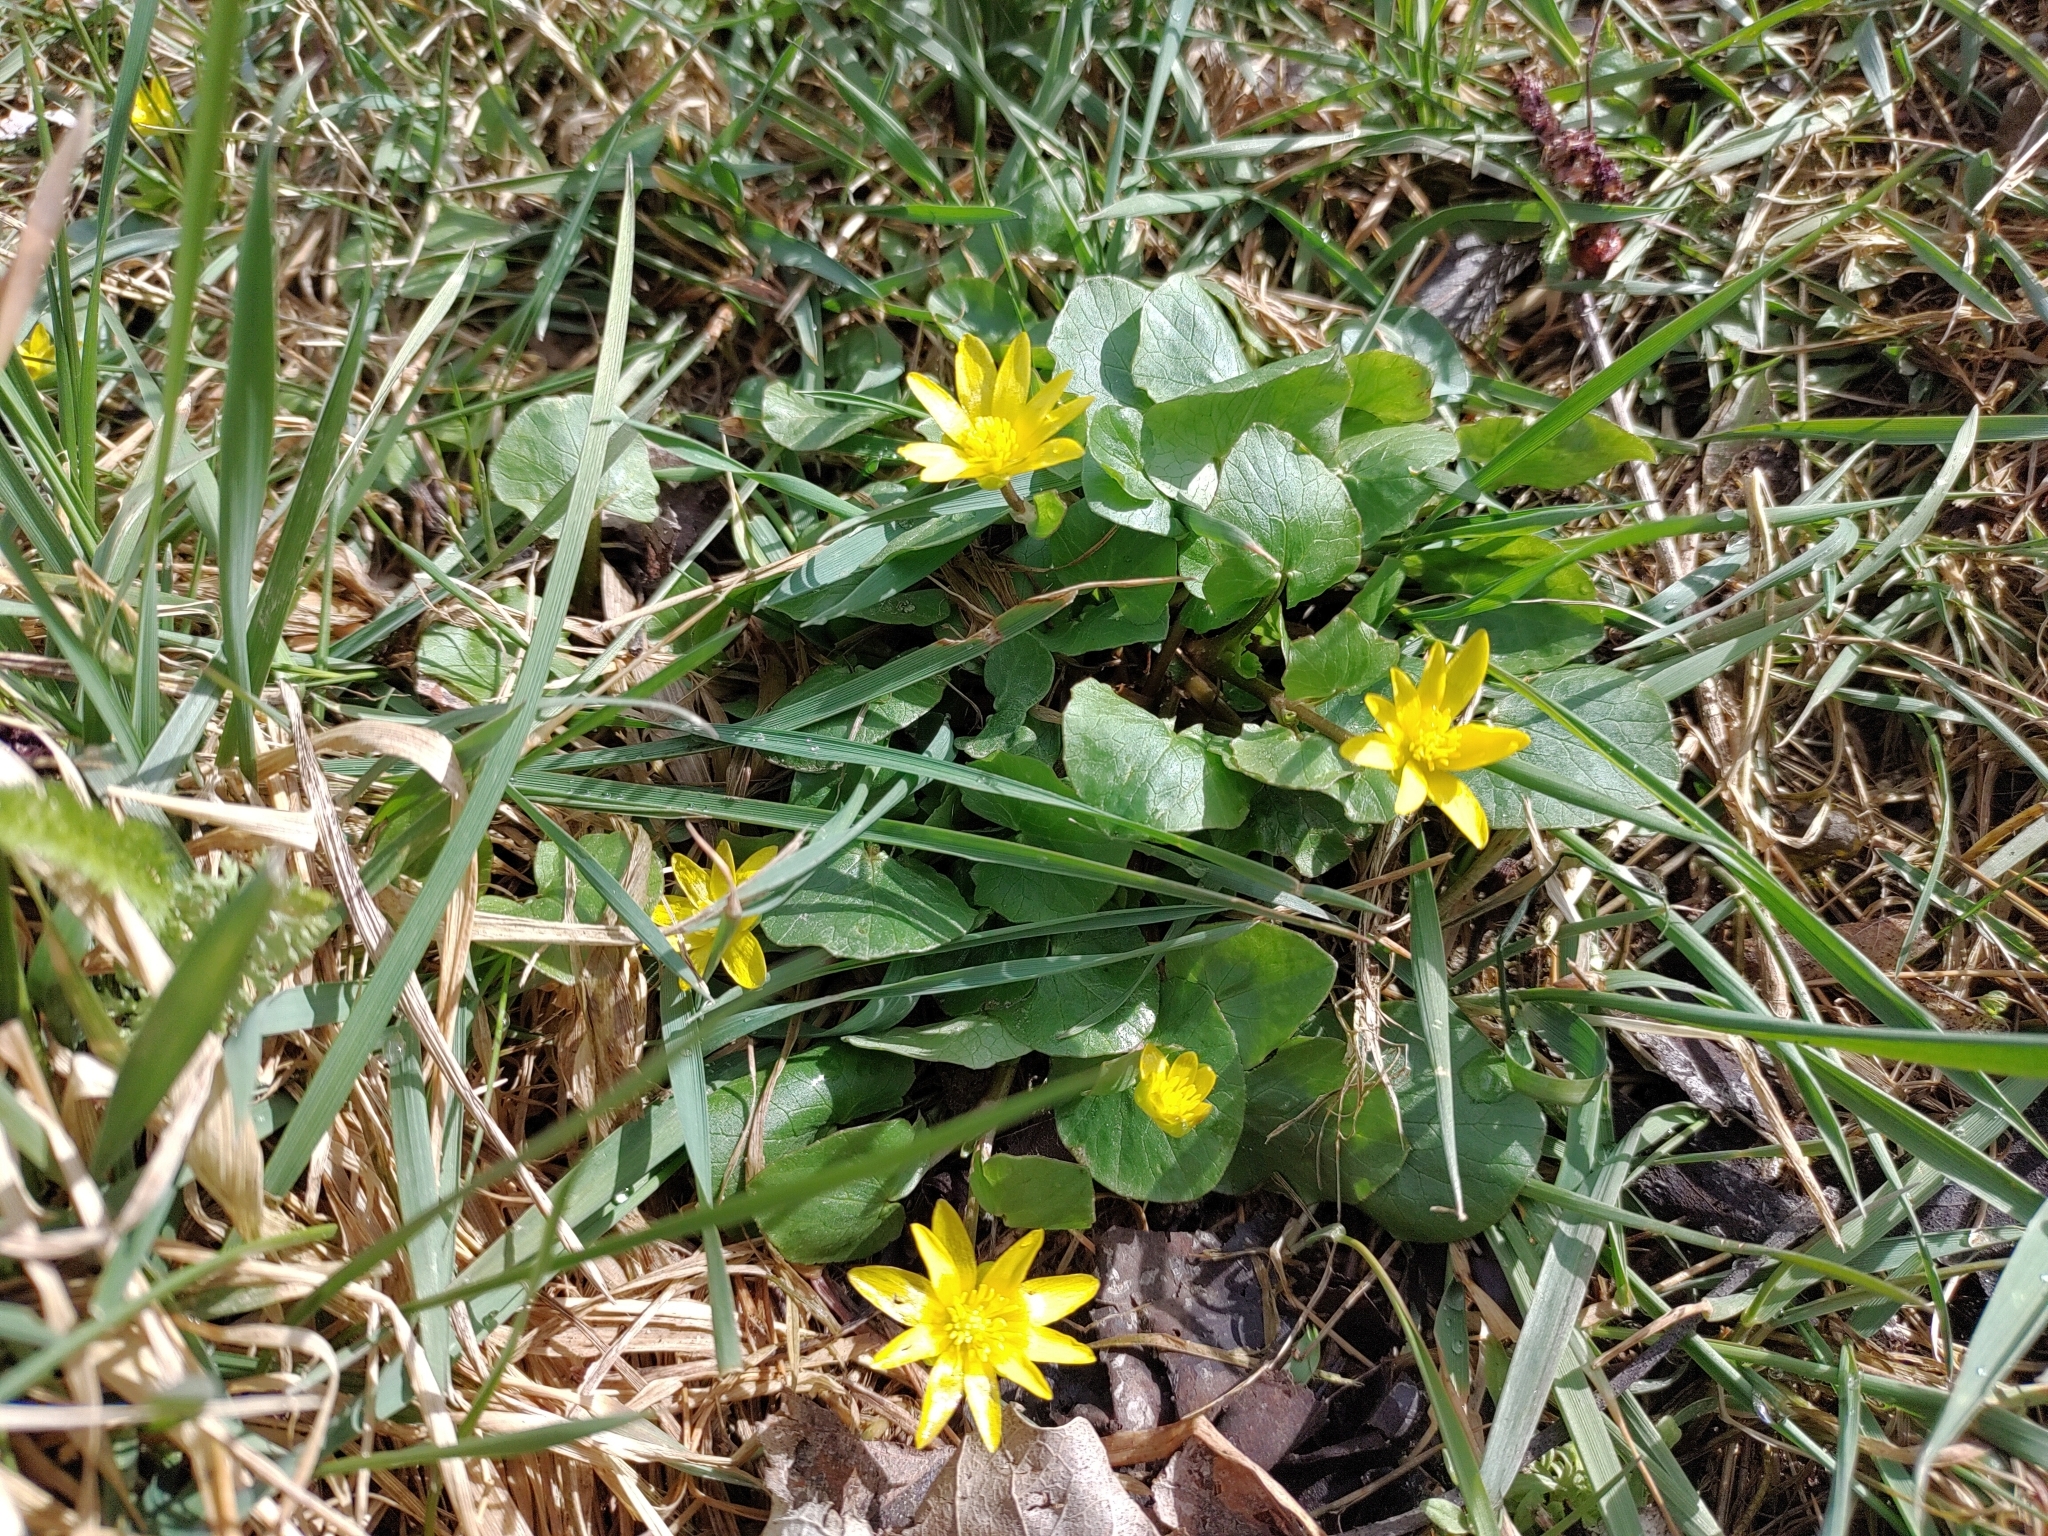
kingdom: Plantae
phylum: Tracheophyta
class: Magnoliopsida
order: Ranunculales
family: Ranunculaceae
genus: Ficaria
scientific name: Ficaria verna
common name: Lesser celandine
